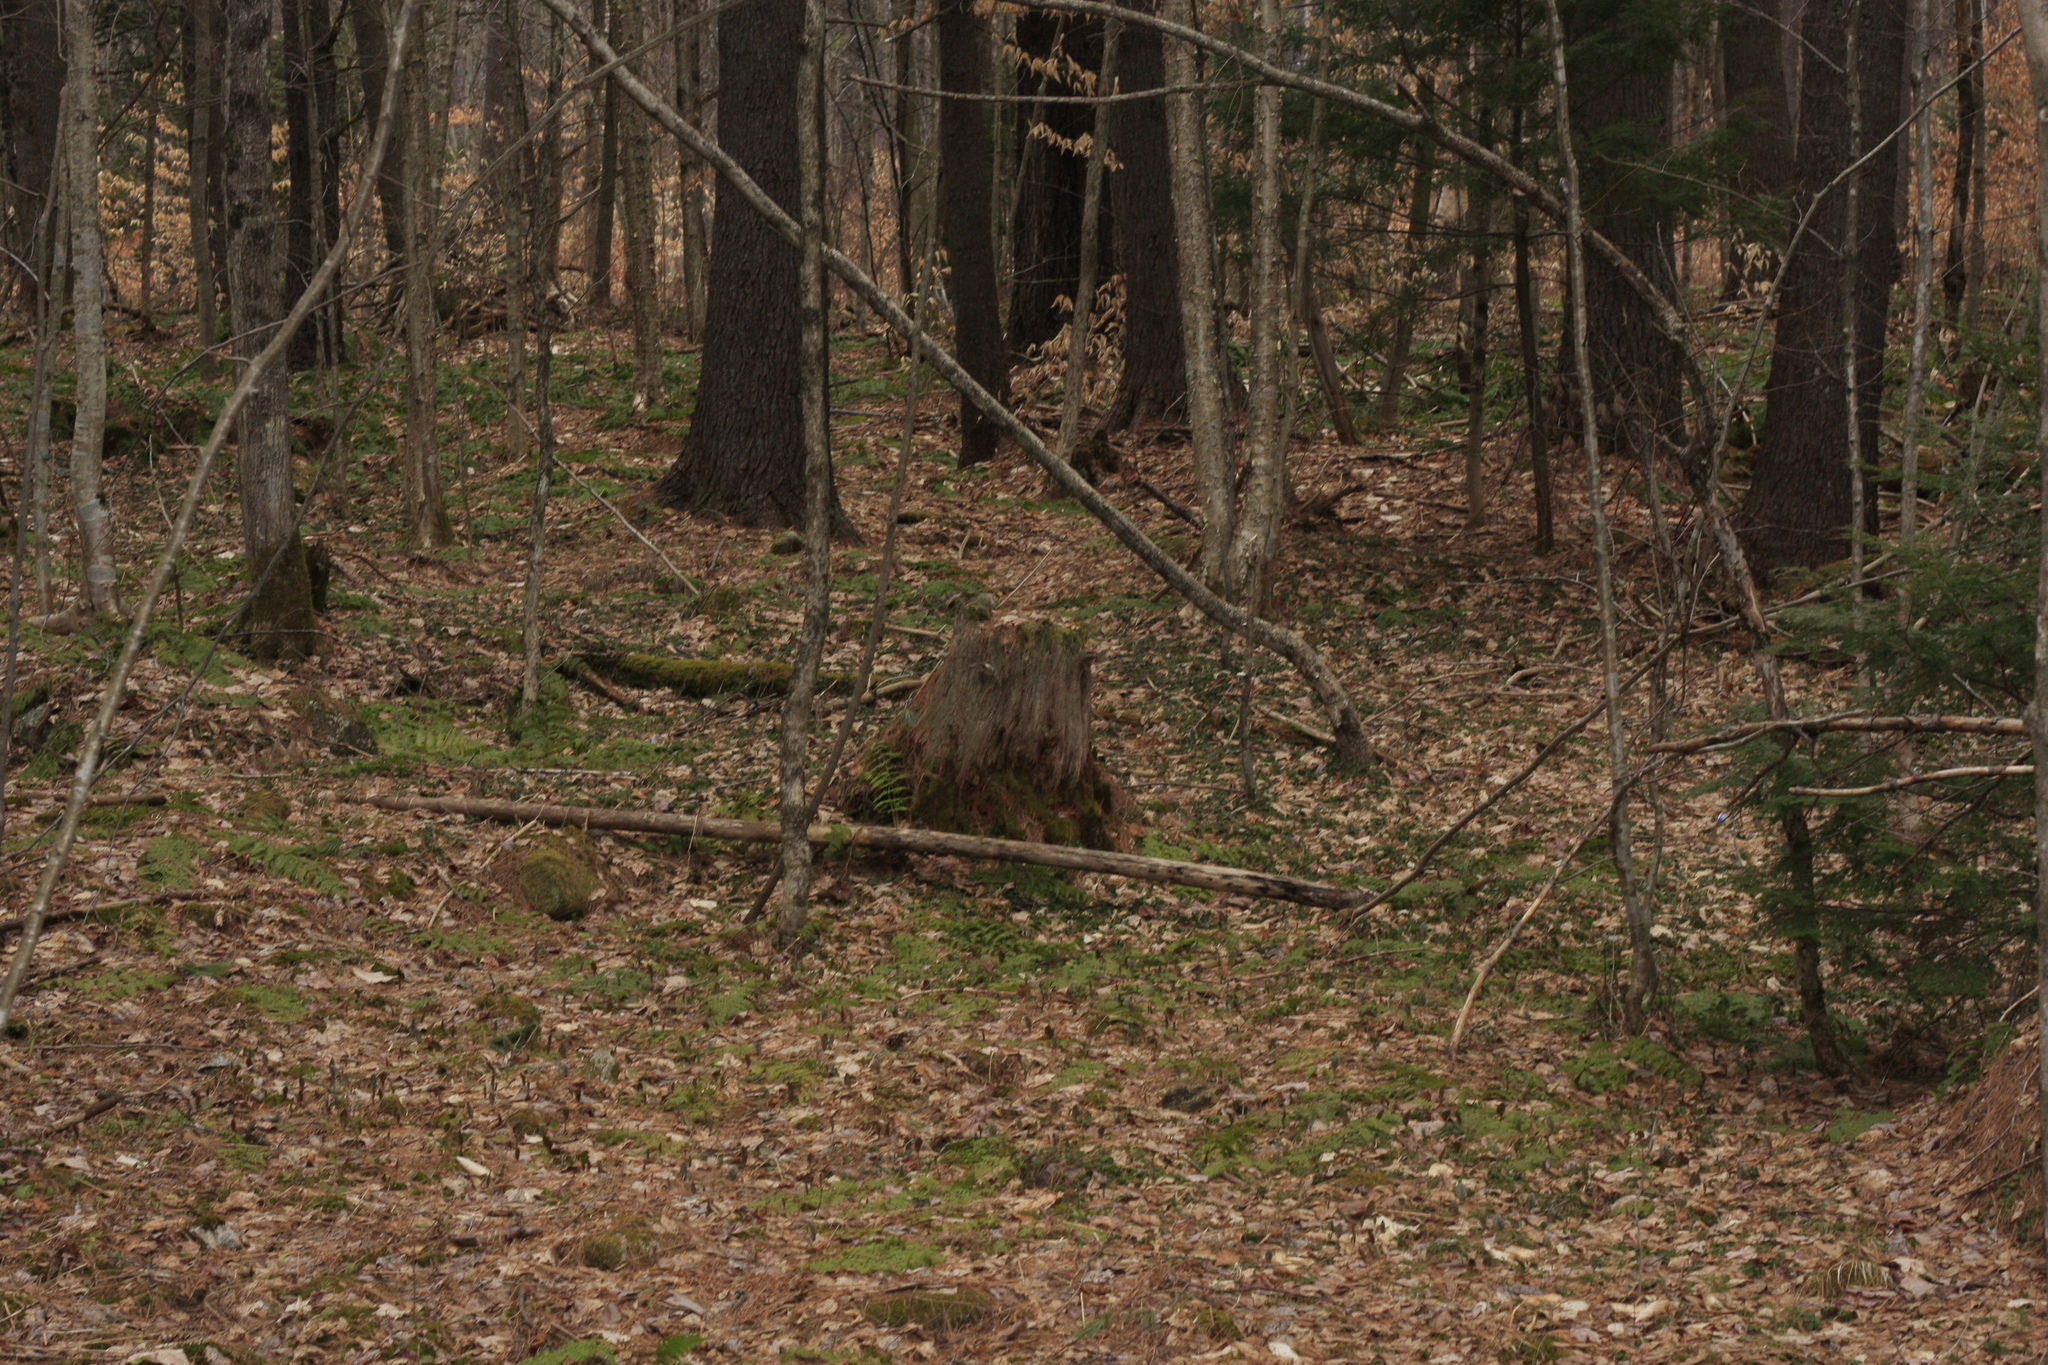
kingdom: Plantae
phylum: Tracheophyta
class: Magnoliopsida
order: Fagales
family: Betulaceae
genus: Betula
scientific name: Betula alleghaniensis
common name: Yellow birch
